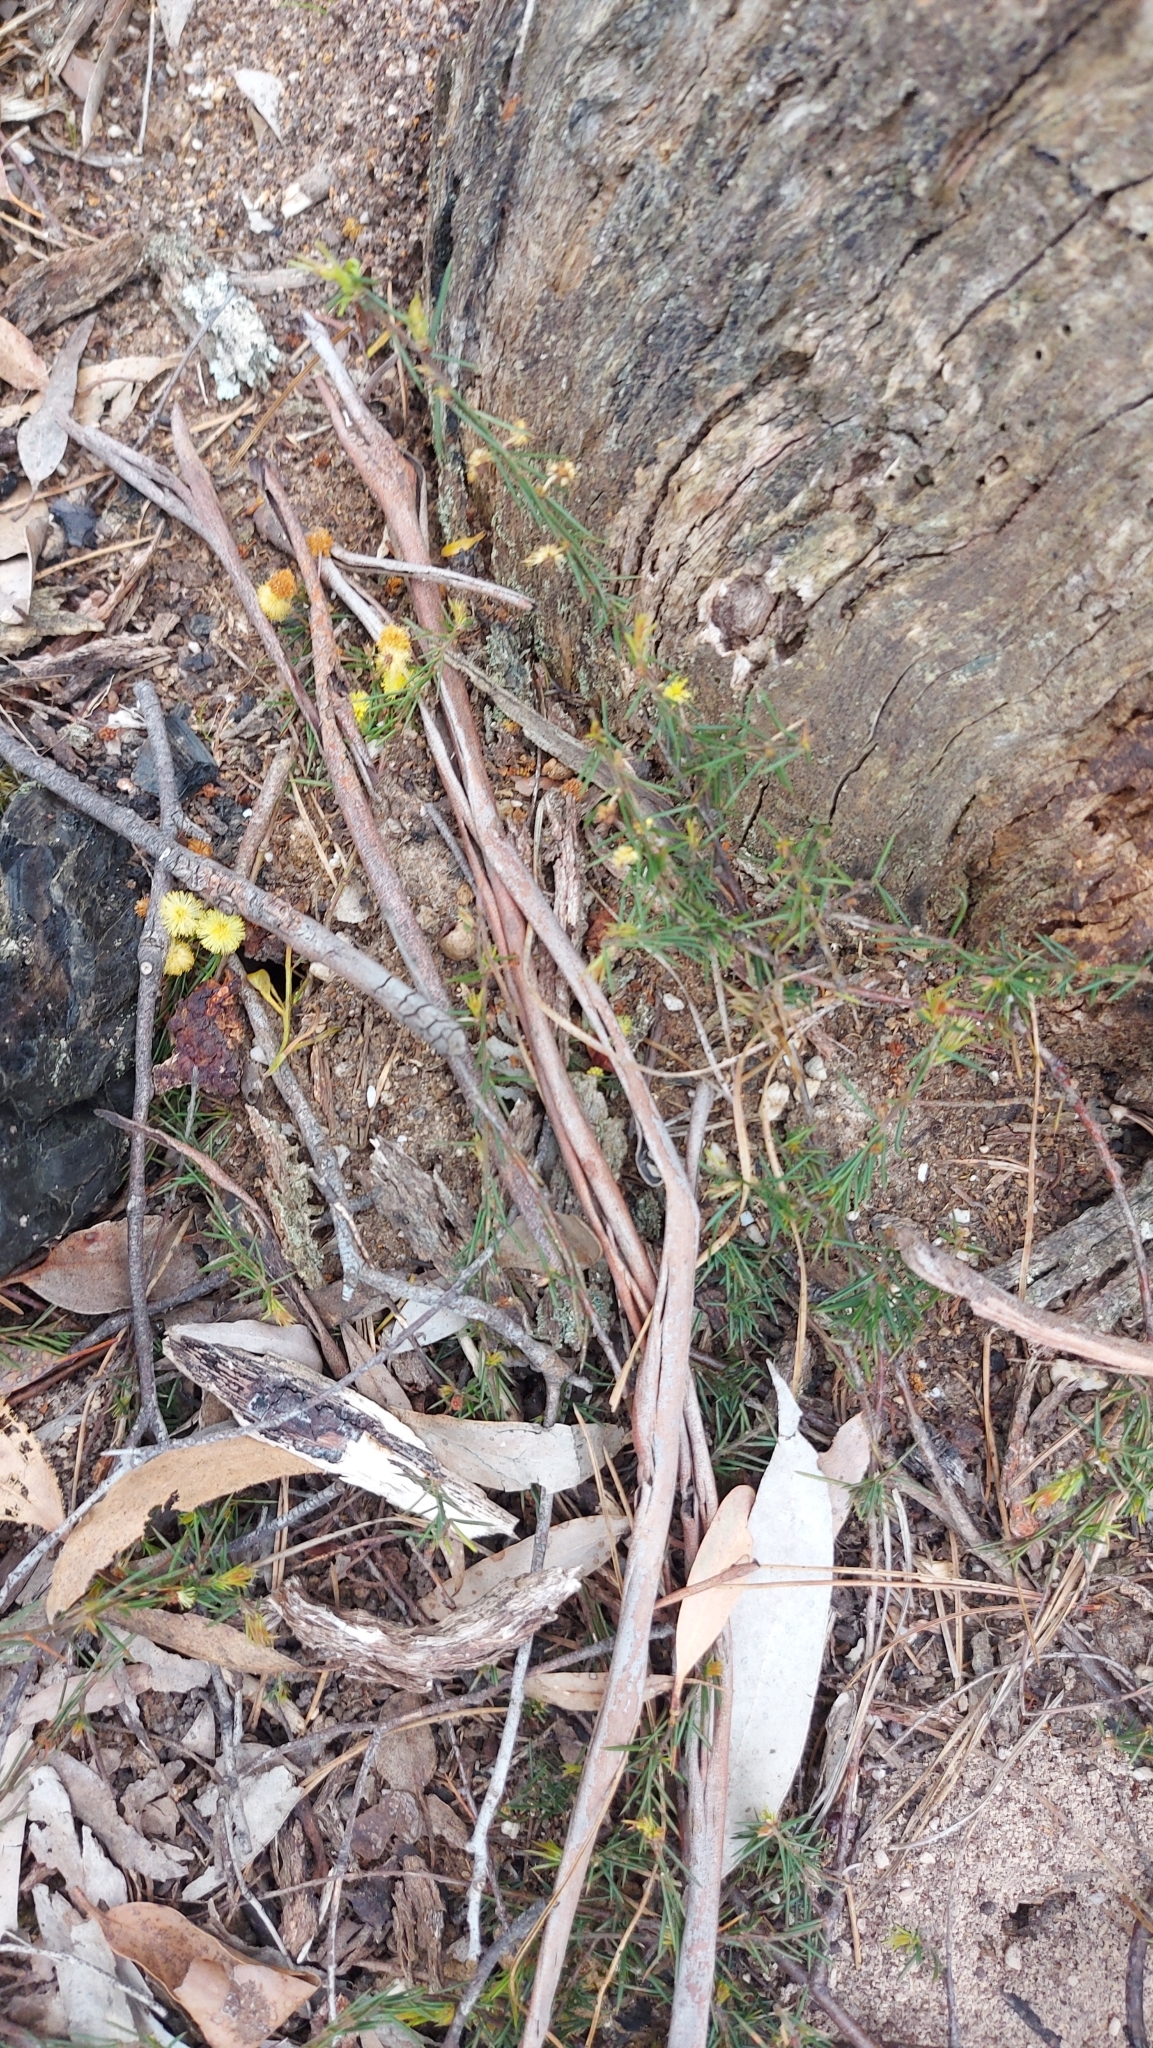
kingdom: Plantae
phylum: Tracheophyta
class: Magnoliopsida
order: Fabales
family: Fabaceae
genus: Acacia
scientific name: Acacia aculeatissima
